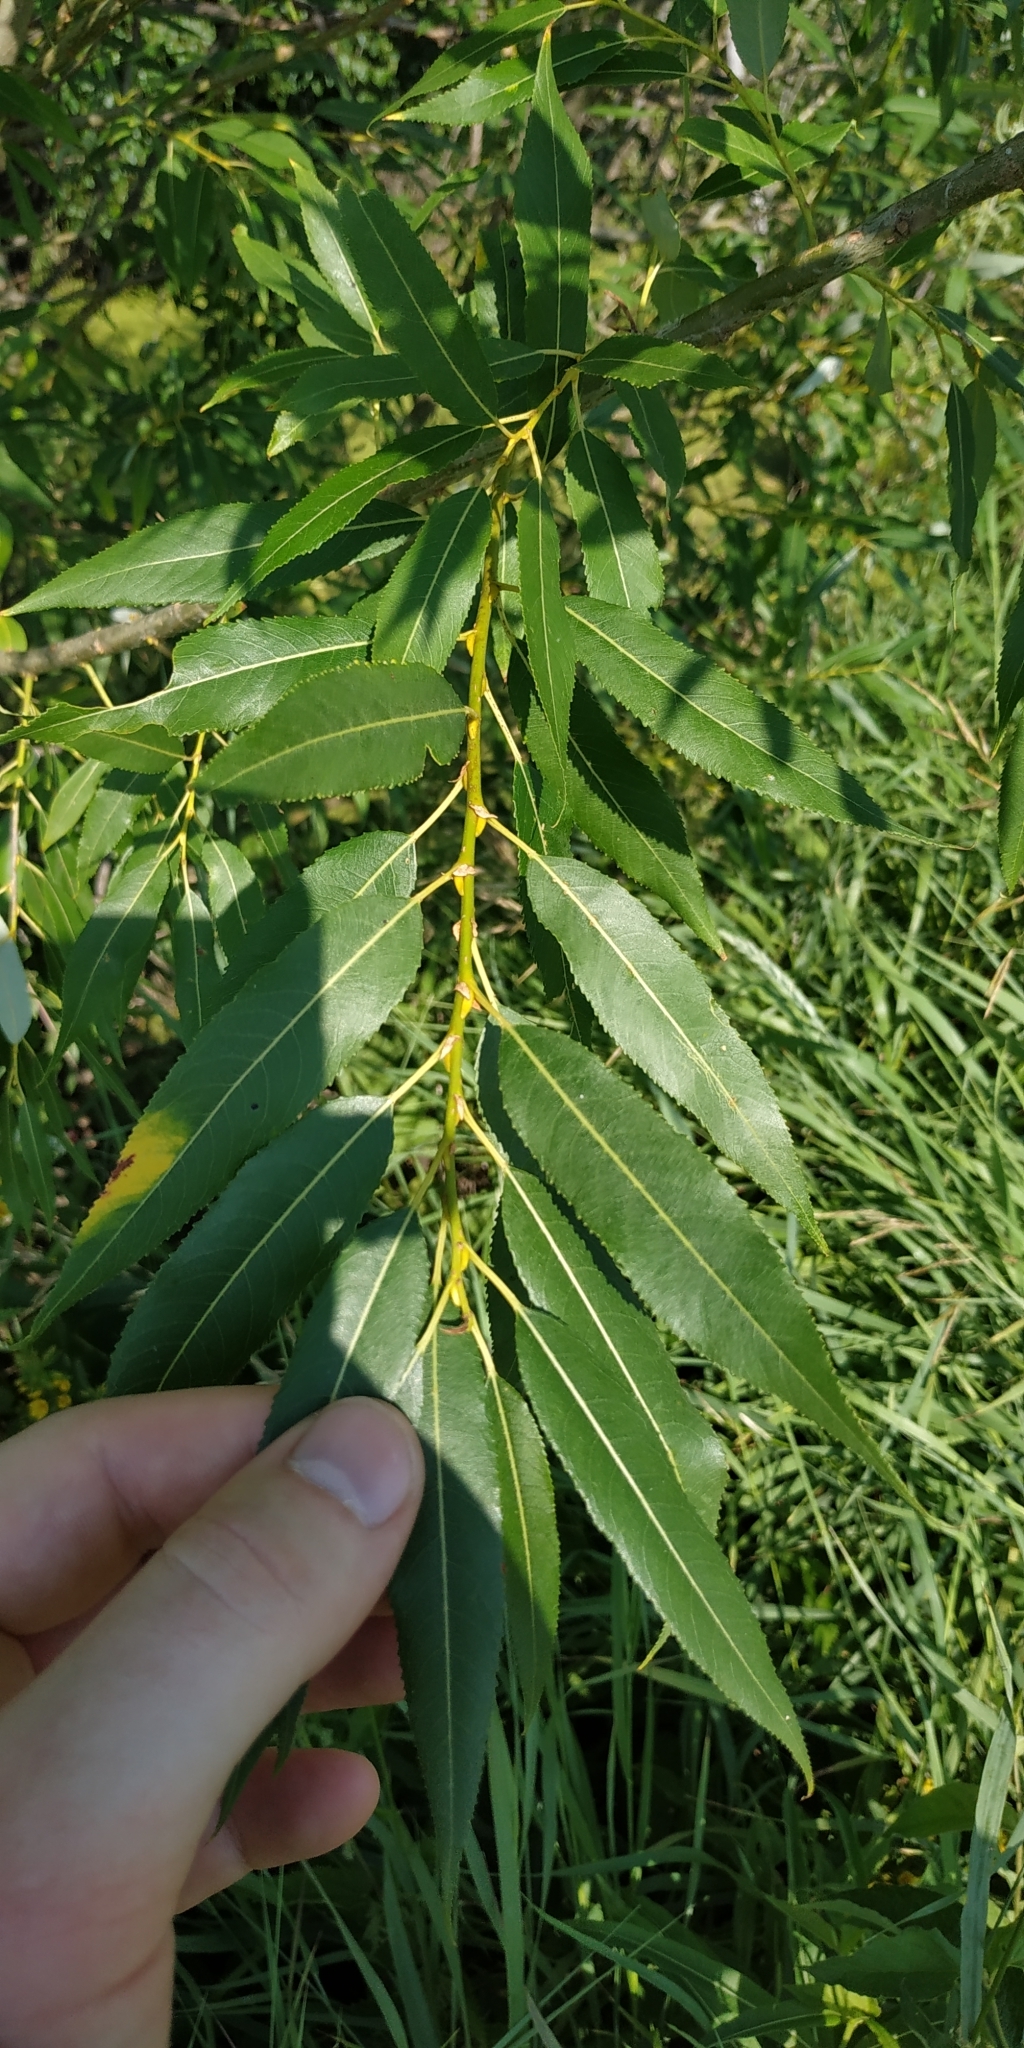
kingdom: Plantae
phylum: Tracheophyta
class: Magnoliopsida
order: Malpighiales
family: Salicaceae
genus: Salix
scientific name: Salix triandra
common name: Almond willow
